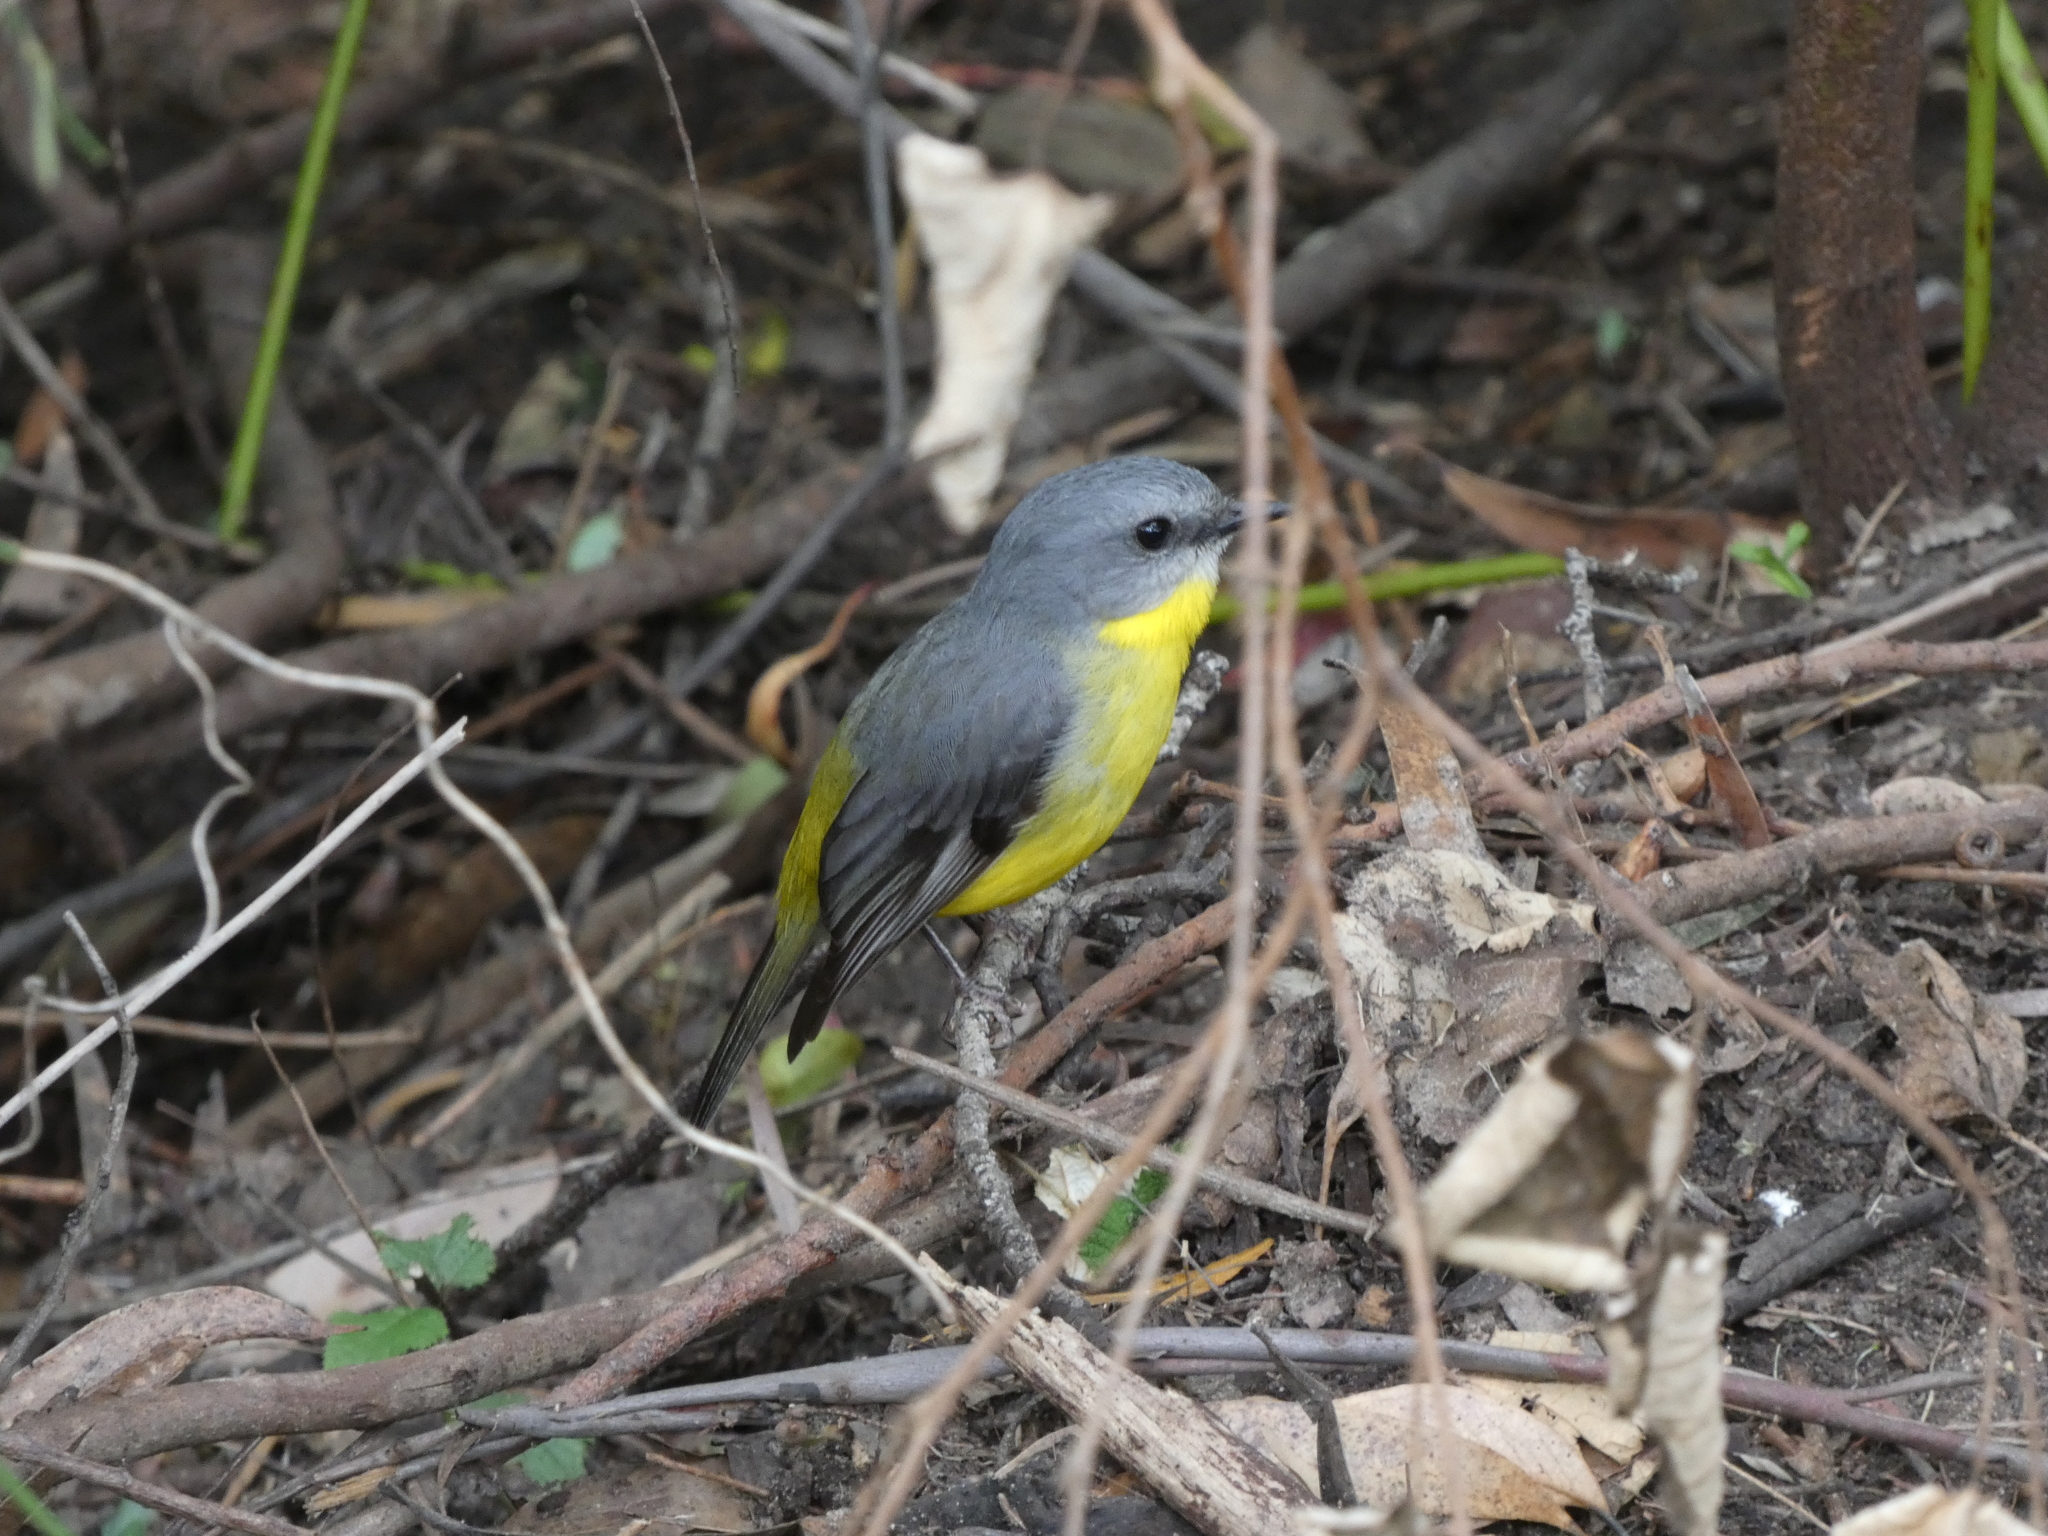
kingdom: Animalia
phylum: Chordata
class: Aves
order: Passeriformes
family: Petroicidae
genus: Eopsaltria
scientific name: Eopsaltria australis
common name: Eastern yellow robin
